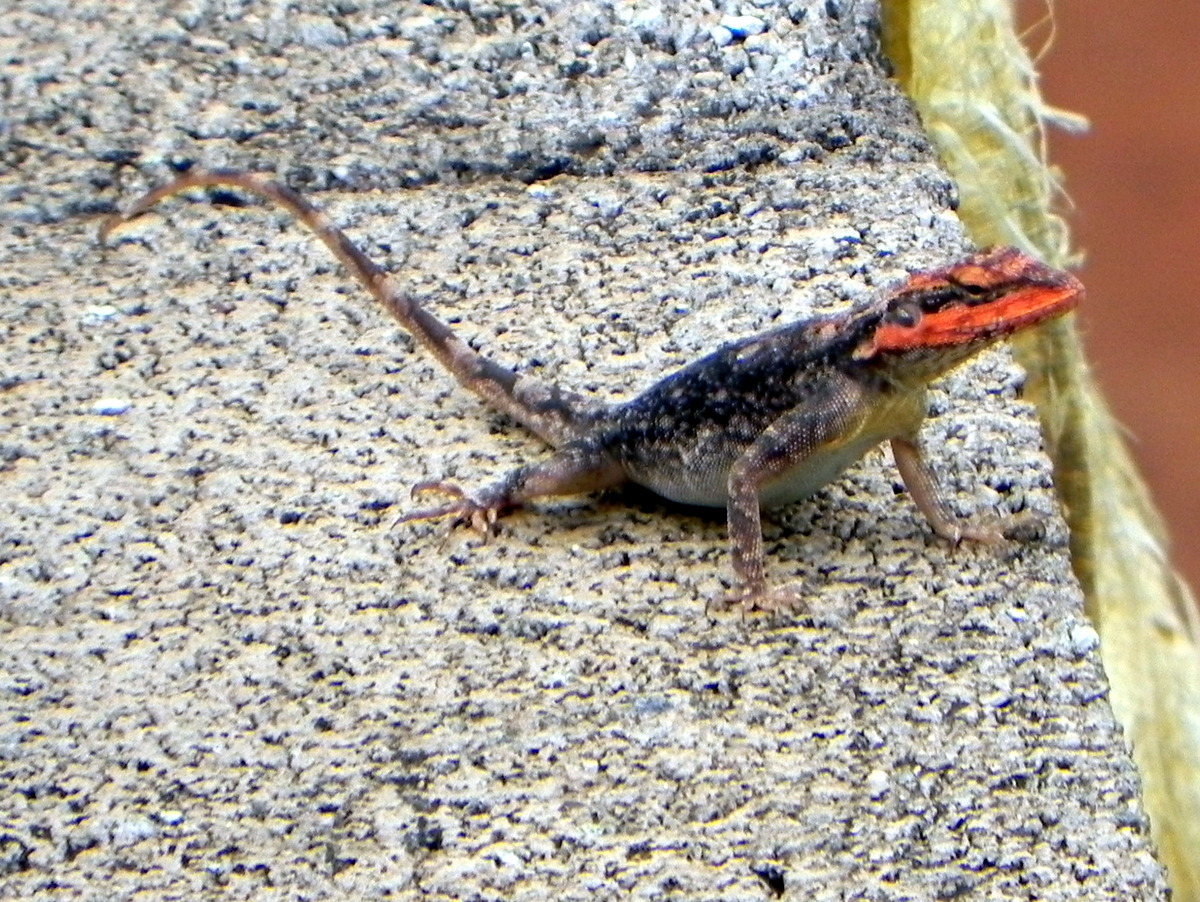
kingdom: Animalia
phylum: Chordata
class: Squamata
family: Agamidae
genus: Psammophilus
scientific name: Psammophilus dorsalis
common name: South indian rock agama
